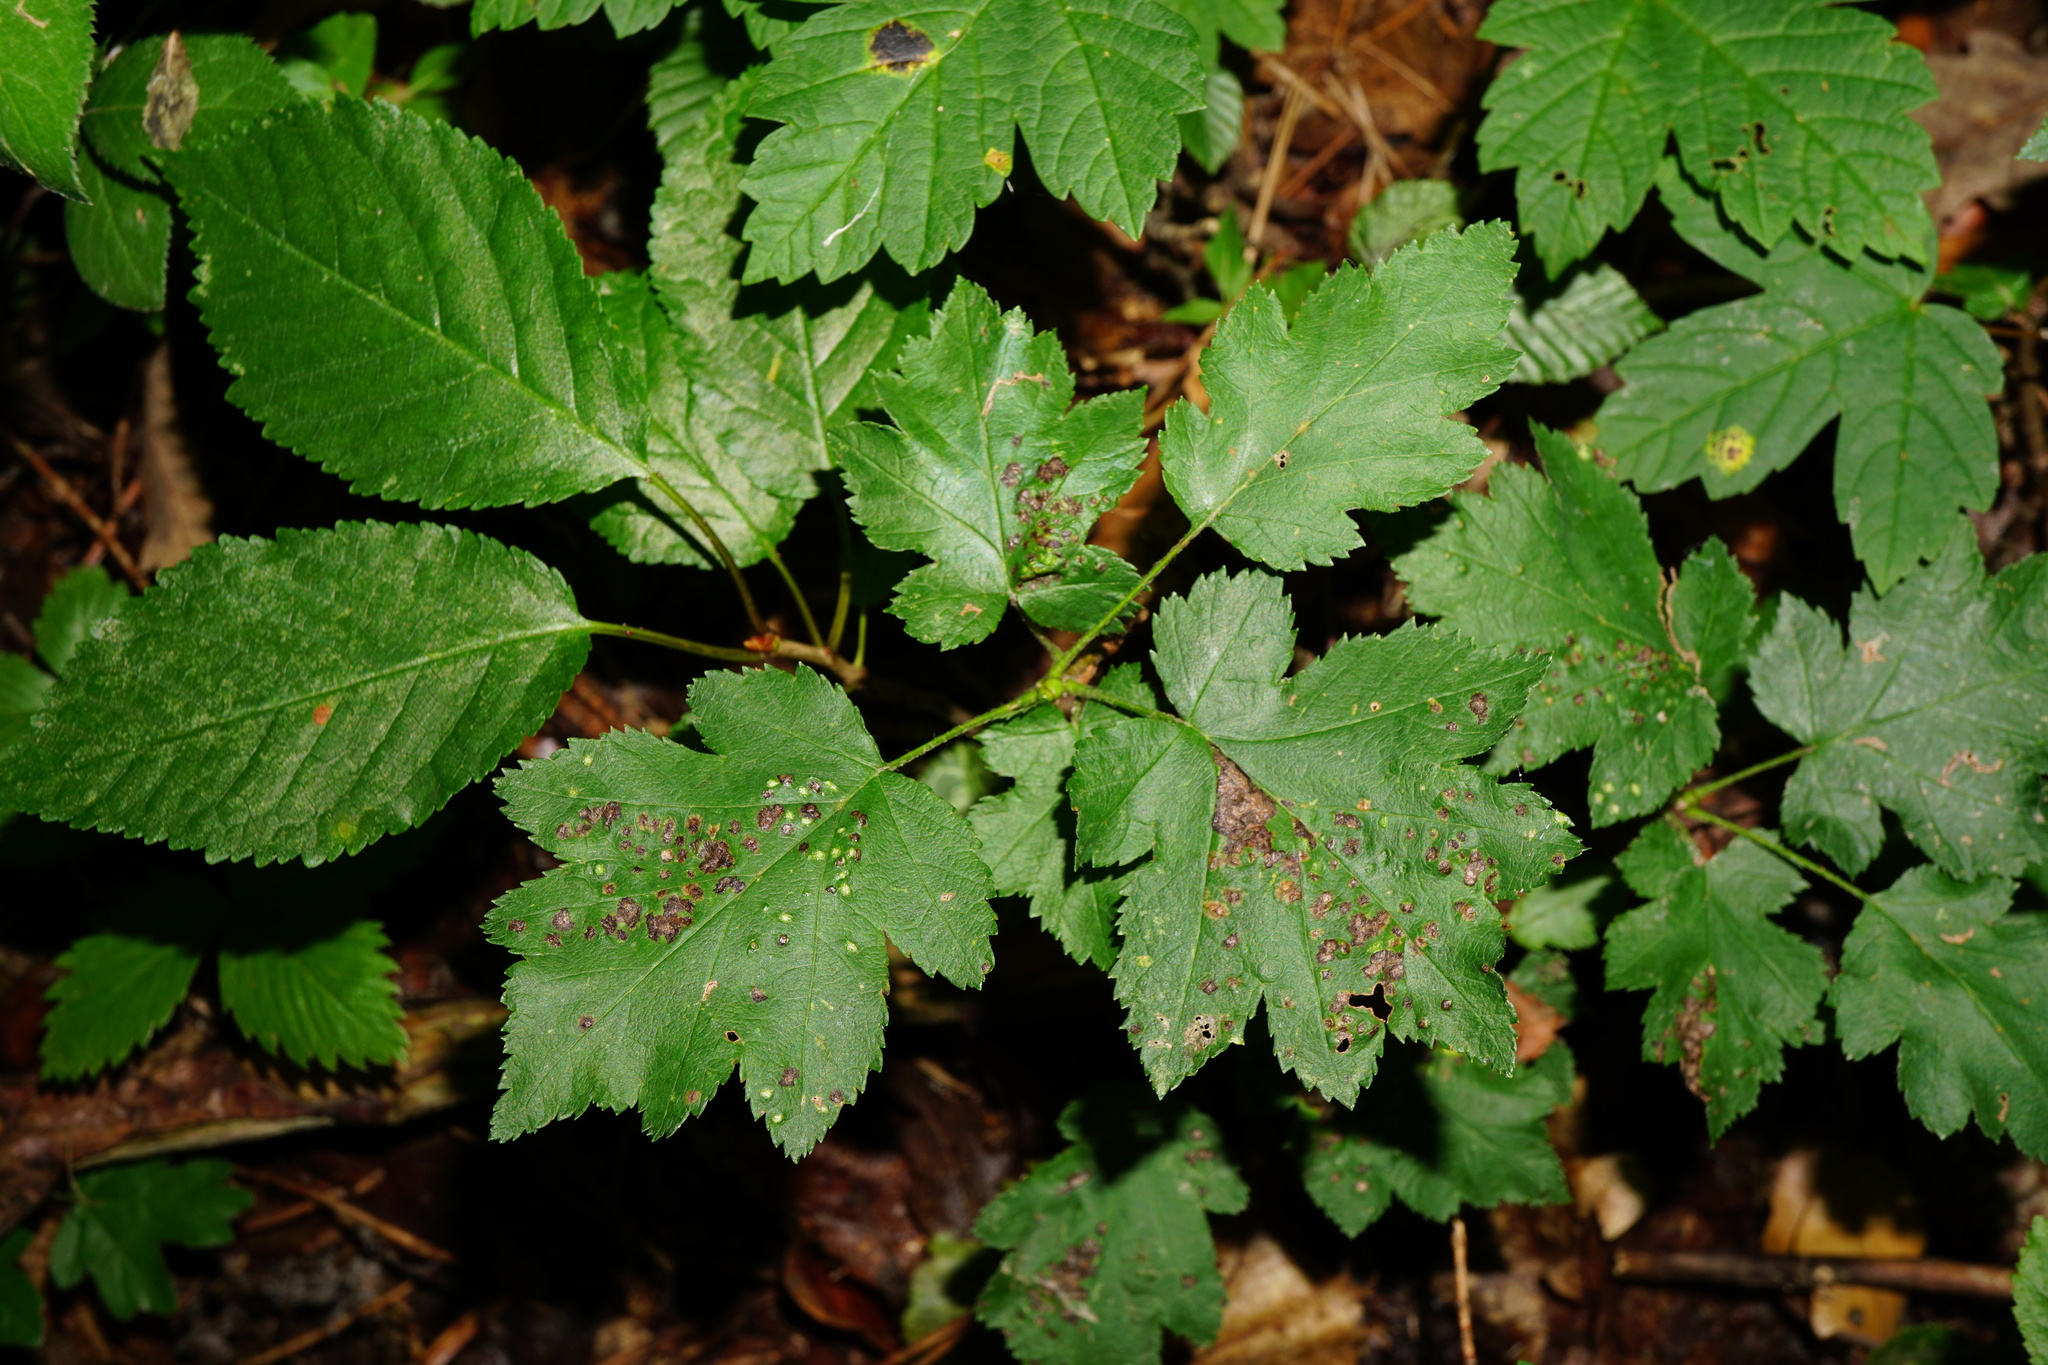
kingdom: Animalia
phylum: Arthropoda
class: Arachnida
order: Trombidiformes
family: Eriophyidae
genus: Eriophyes
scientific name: Eriophyes torminalis
